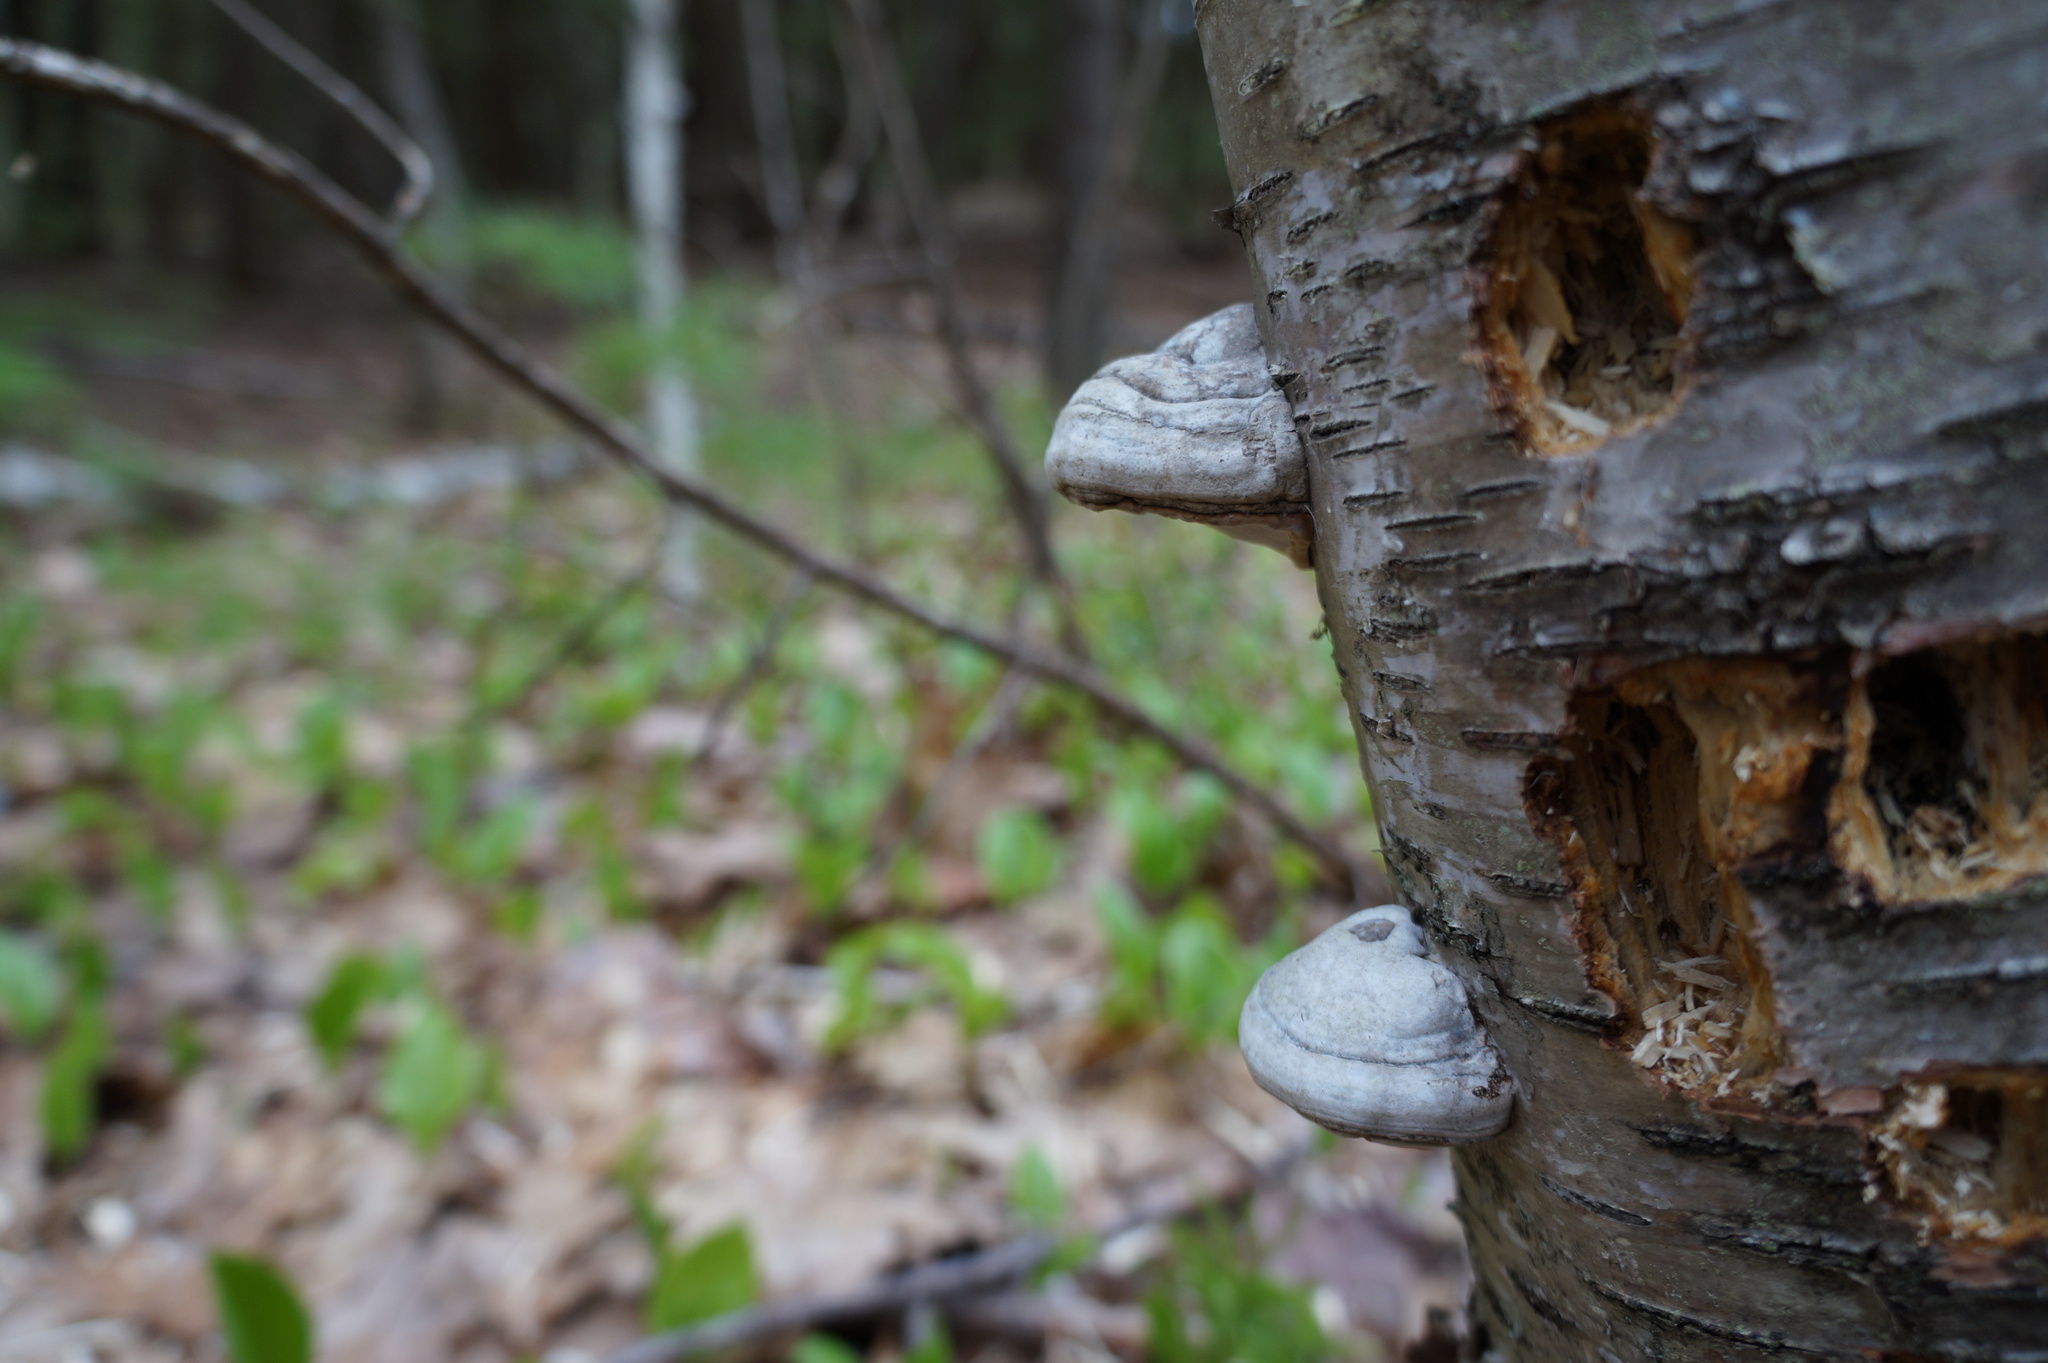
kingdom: Fungi
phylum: Basidiomycota
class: Agaricomycetes
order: Polyporales
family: Polyporaceae
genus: Fomes
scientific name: Fomes fomentarius
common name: Hoof fungus
